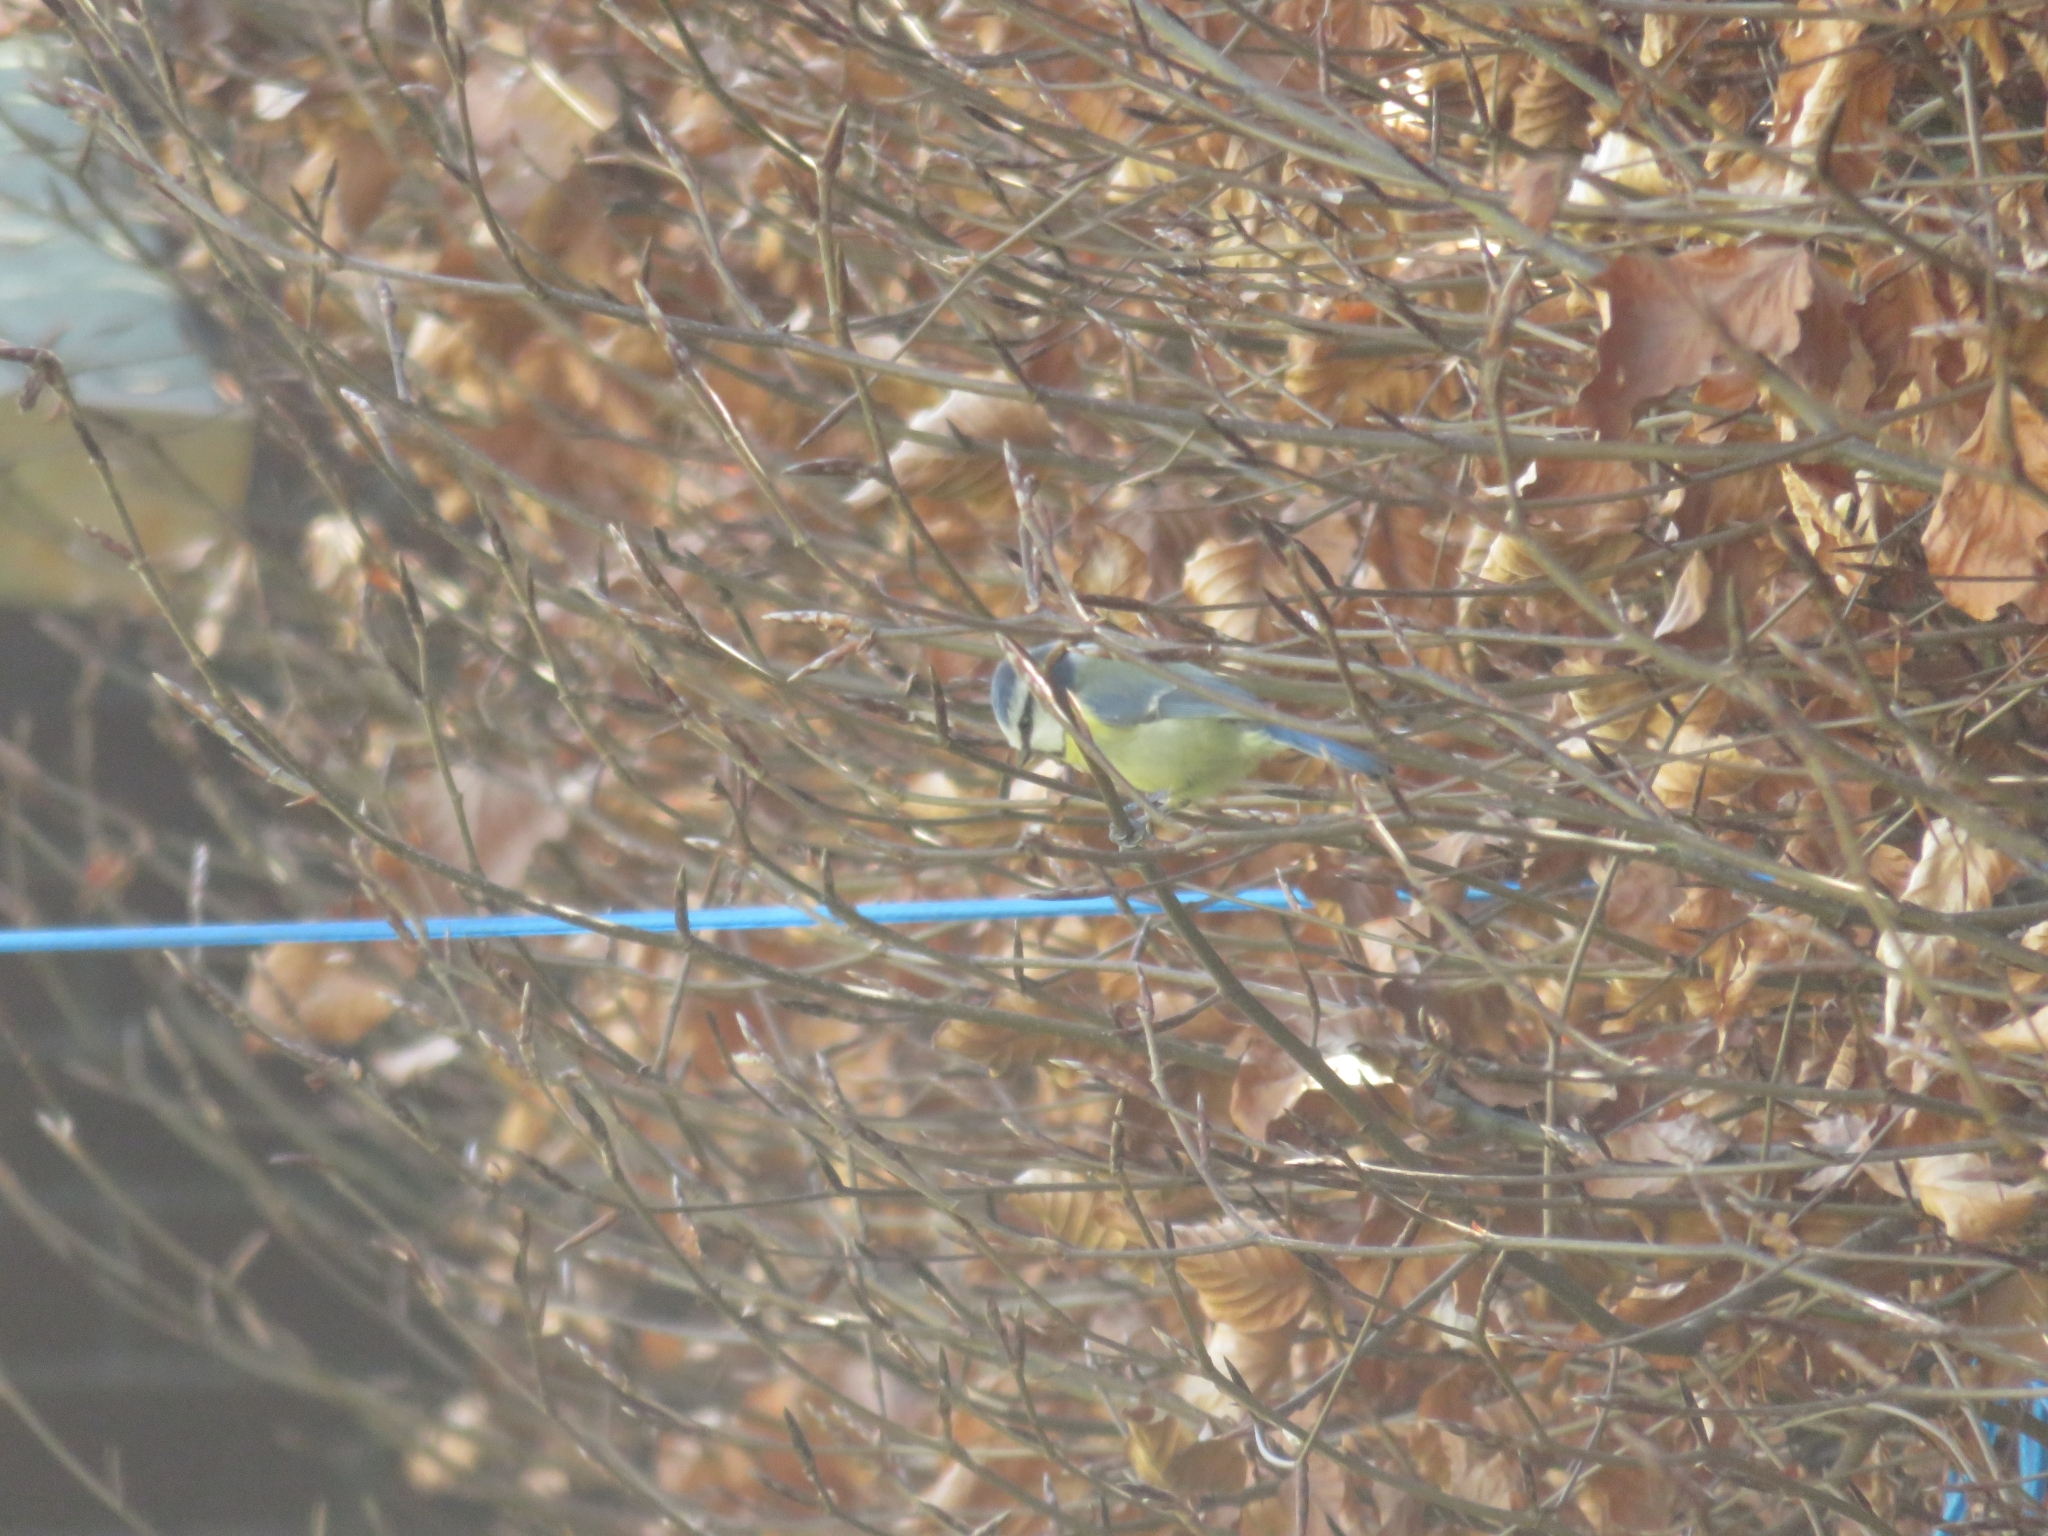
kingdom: Animalia
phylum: Chordata
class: Aves
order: Passeriformes
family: Paridae
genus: Cyanistes
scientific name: Cyanistes caeruleus
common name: Eurasian blue tit
